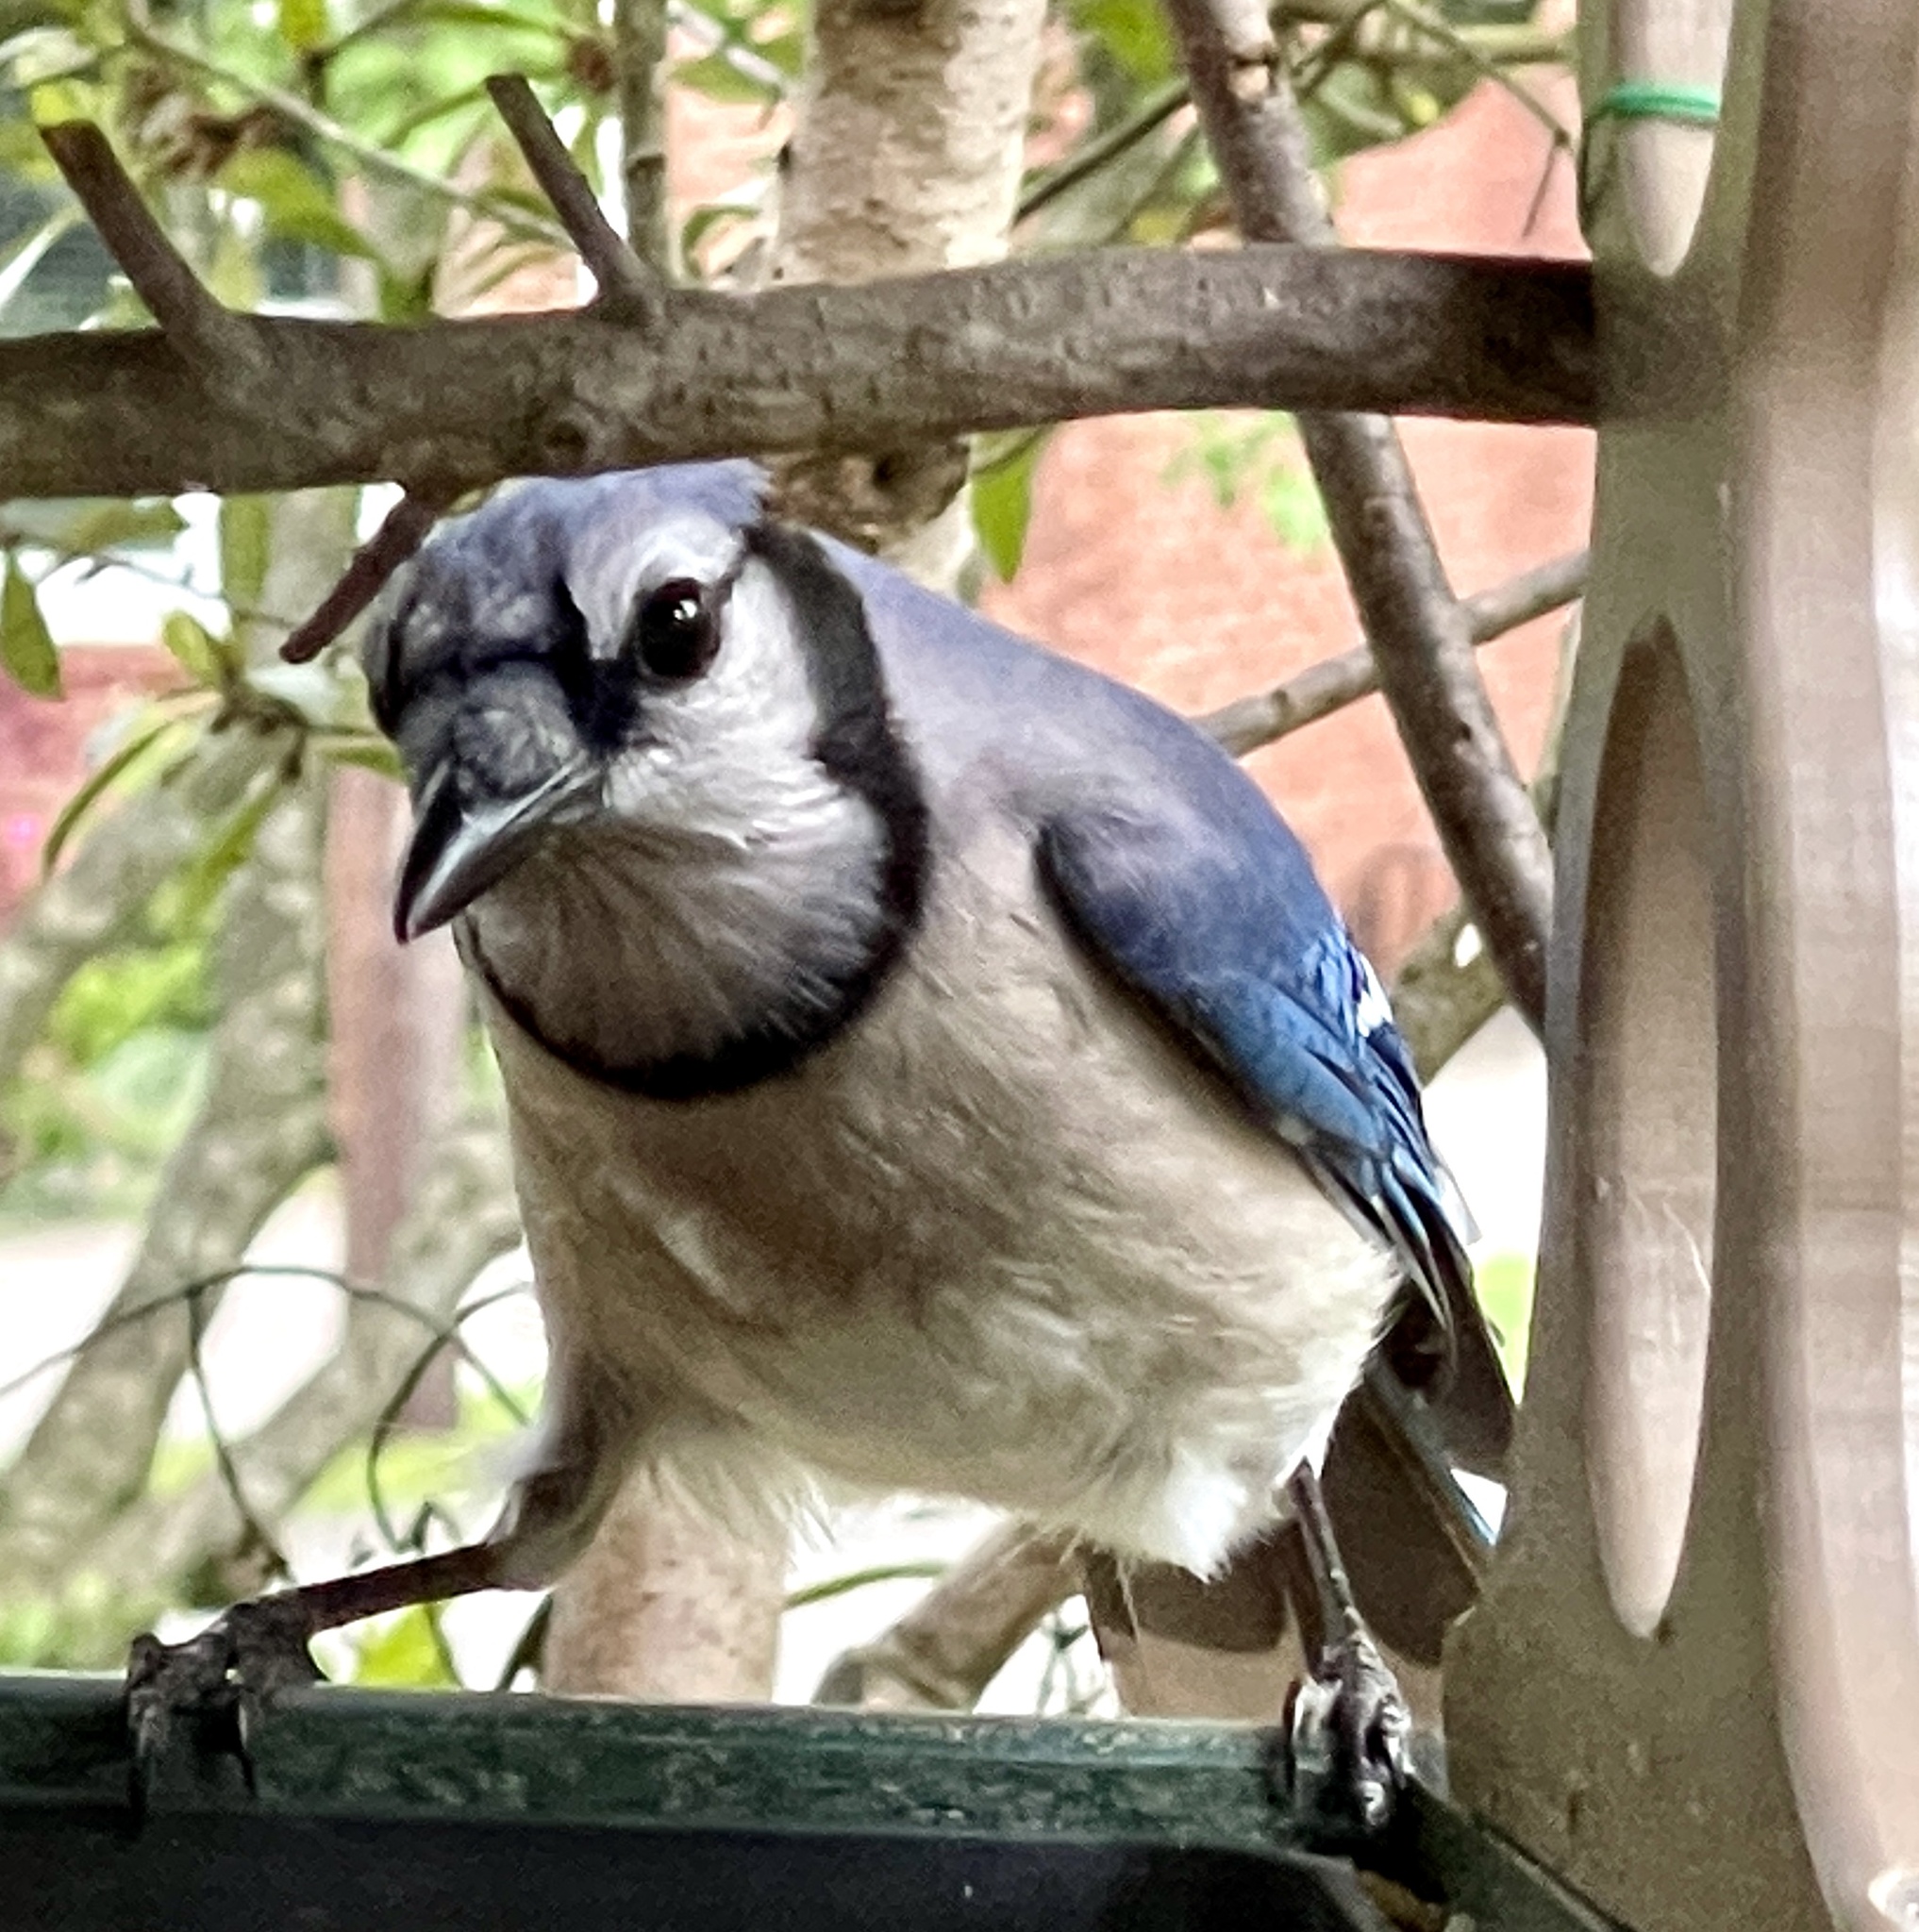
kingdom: Animalia
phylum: Chordata
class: Aves
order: Passeriformes
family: Corvidae
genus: Cyanocitta
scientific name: Cyanocitta cristata
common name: Blue jay
